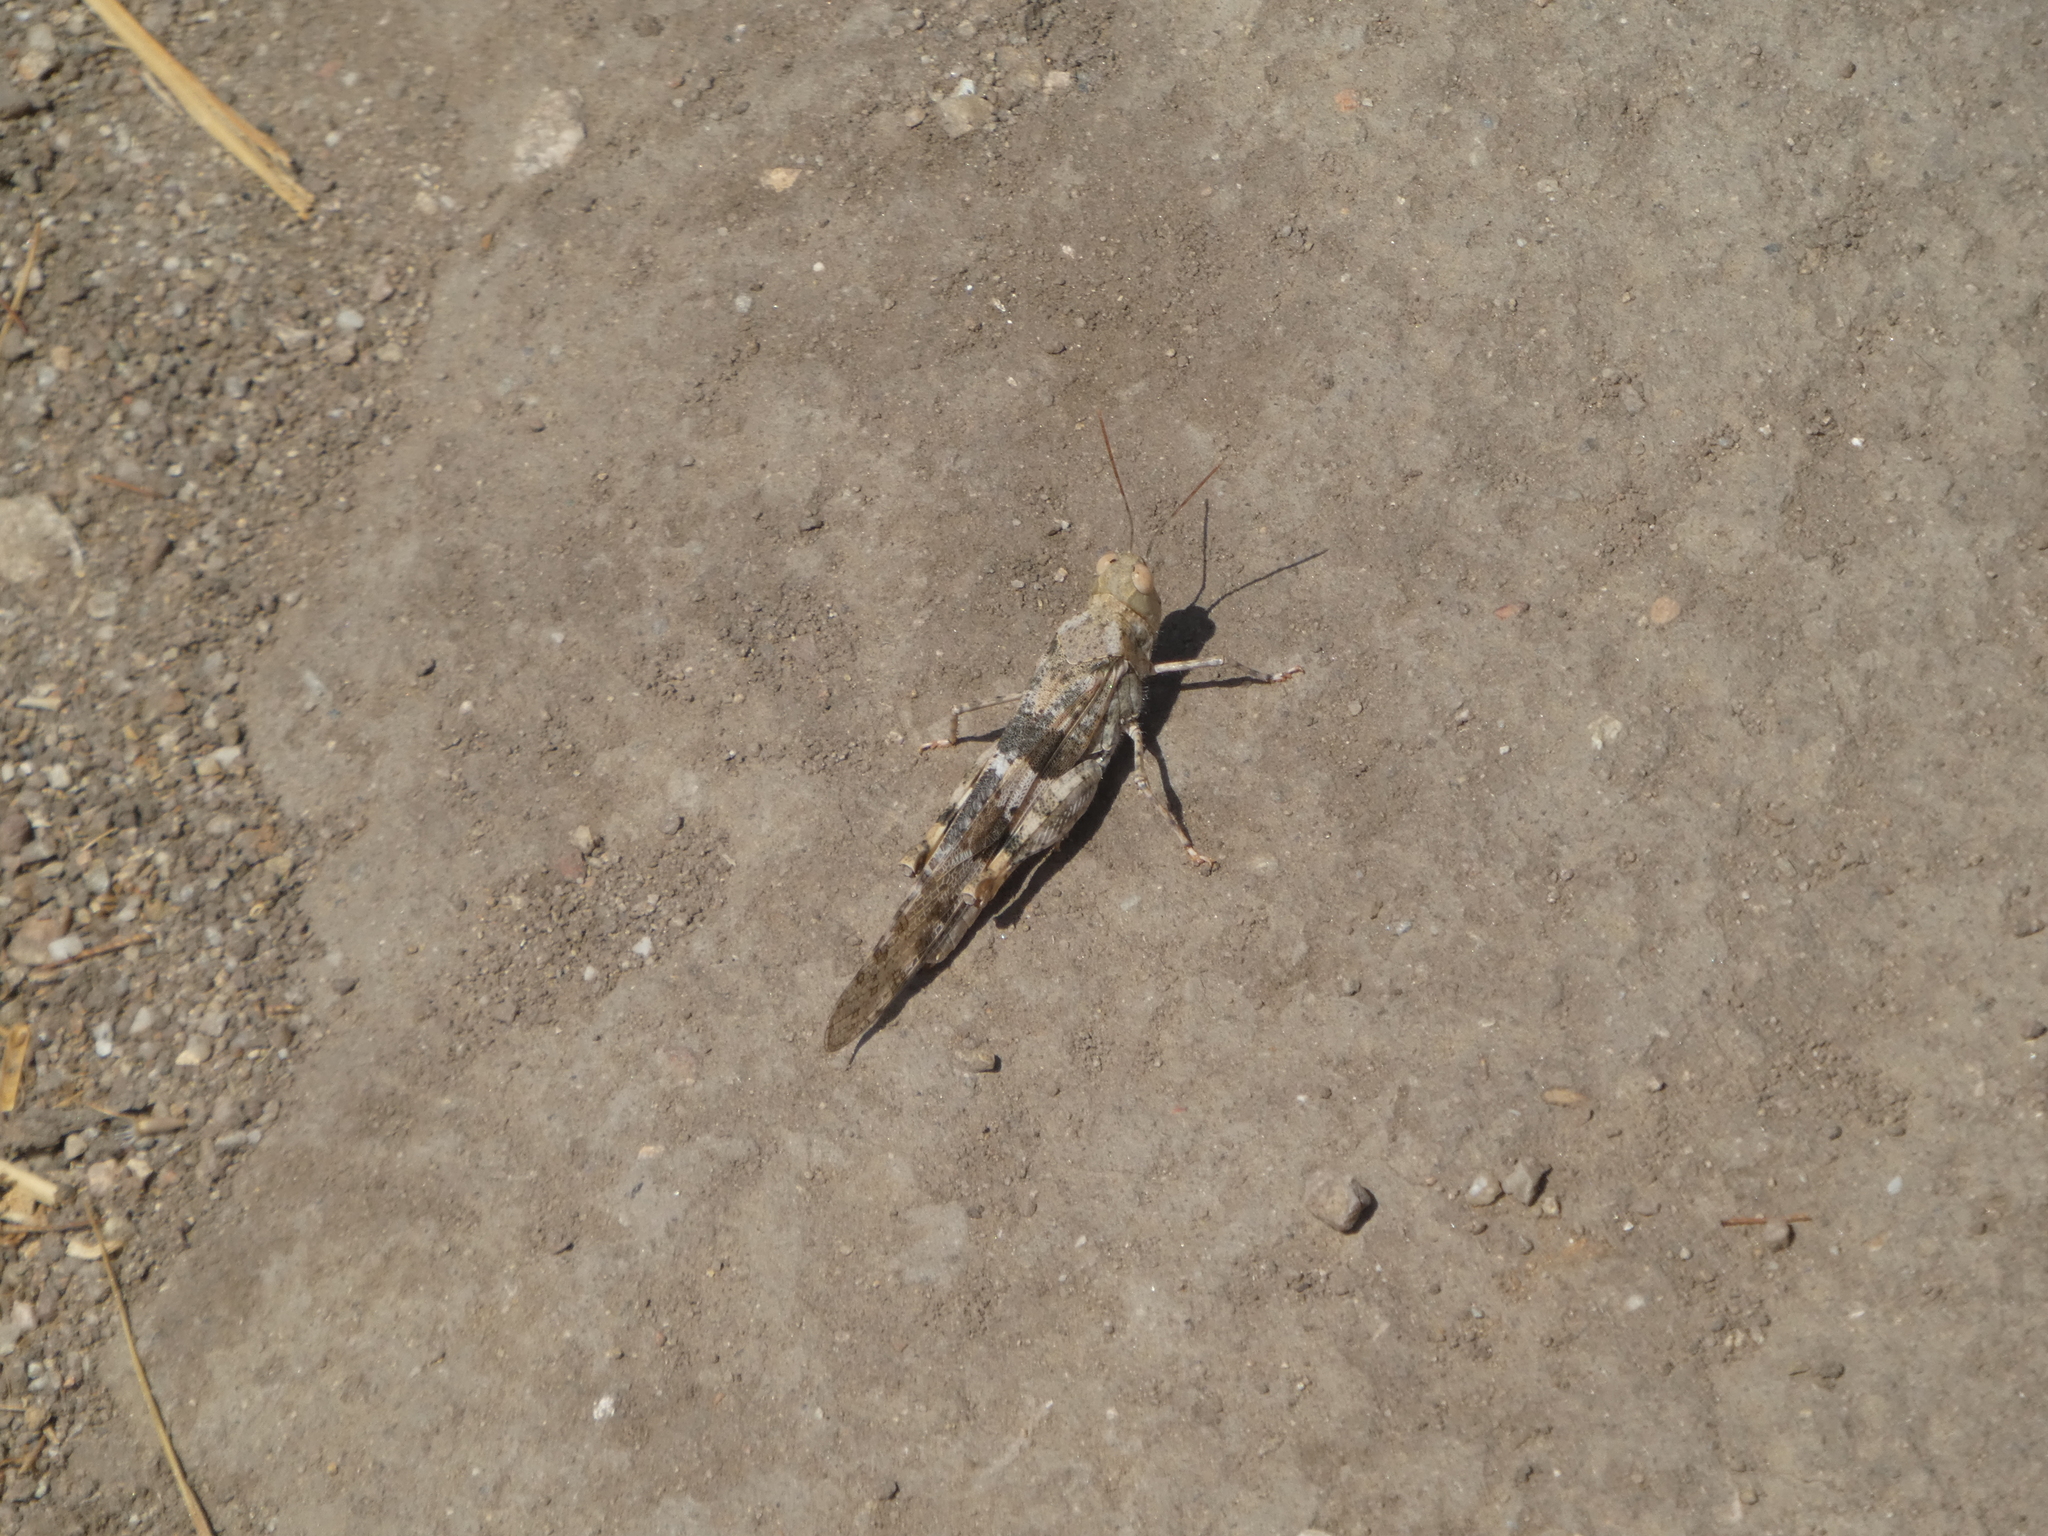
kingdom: Animalia
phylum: Arthropoda
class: Insecta
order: Orthoptera
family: Acrididae
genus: Trimerotropis
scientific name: Trimerotropis pallidipennis
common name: Pallid-winged grasshopper
